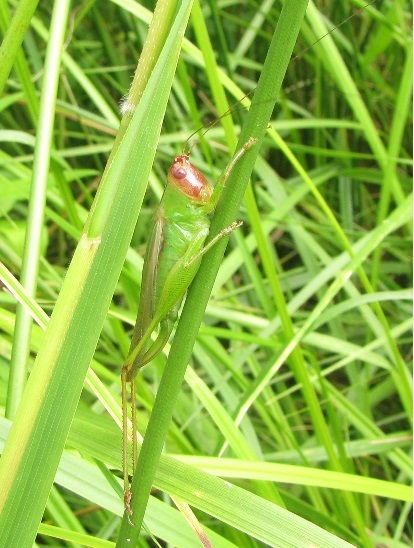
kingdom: Animalia
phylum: Arthropoda
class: Insecta
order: Orthoptera
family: Tettigoniidae
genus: Orchelimum
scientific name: Orchelimum erythrocephalum
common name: Red-headed meadow katydid
